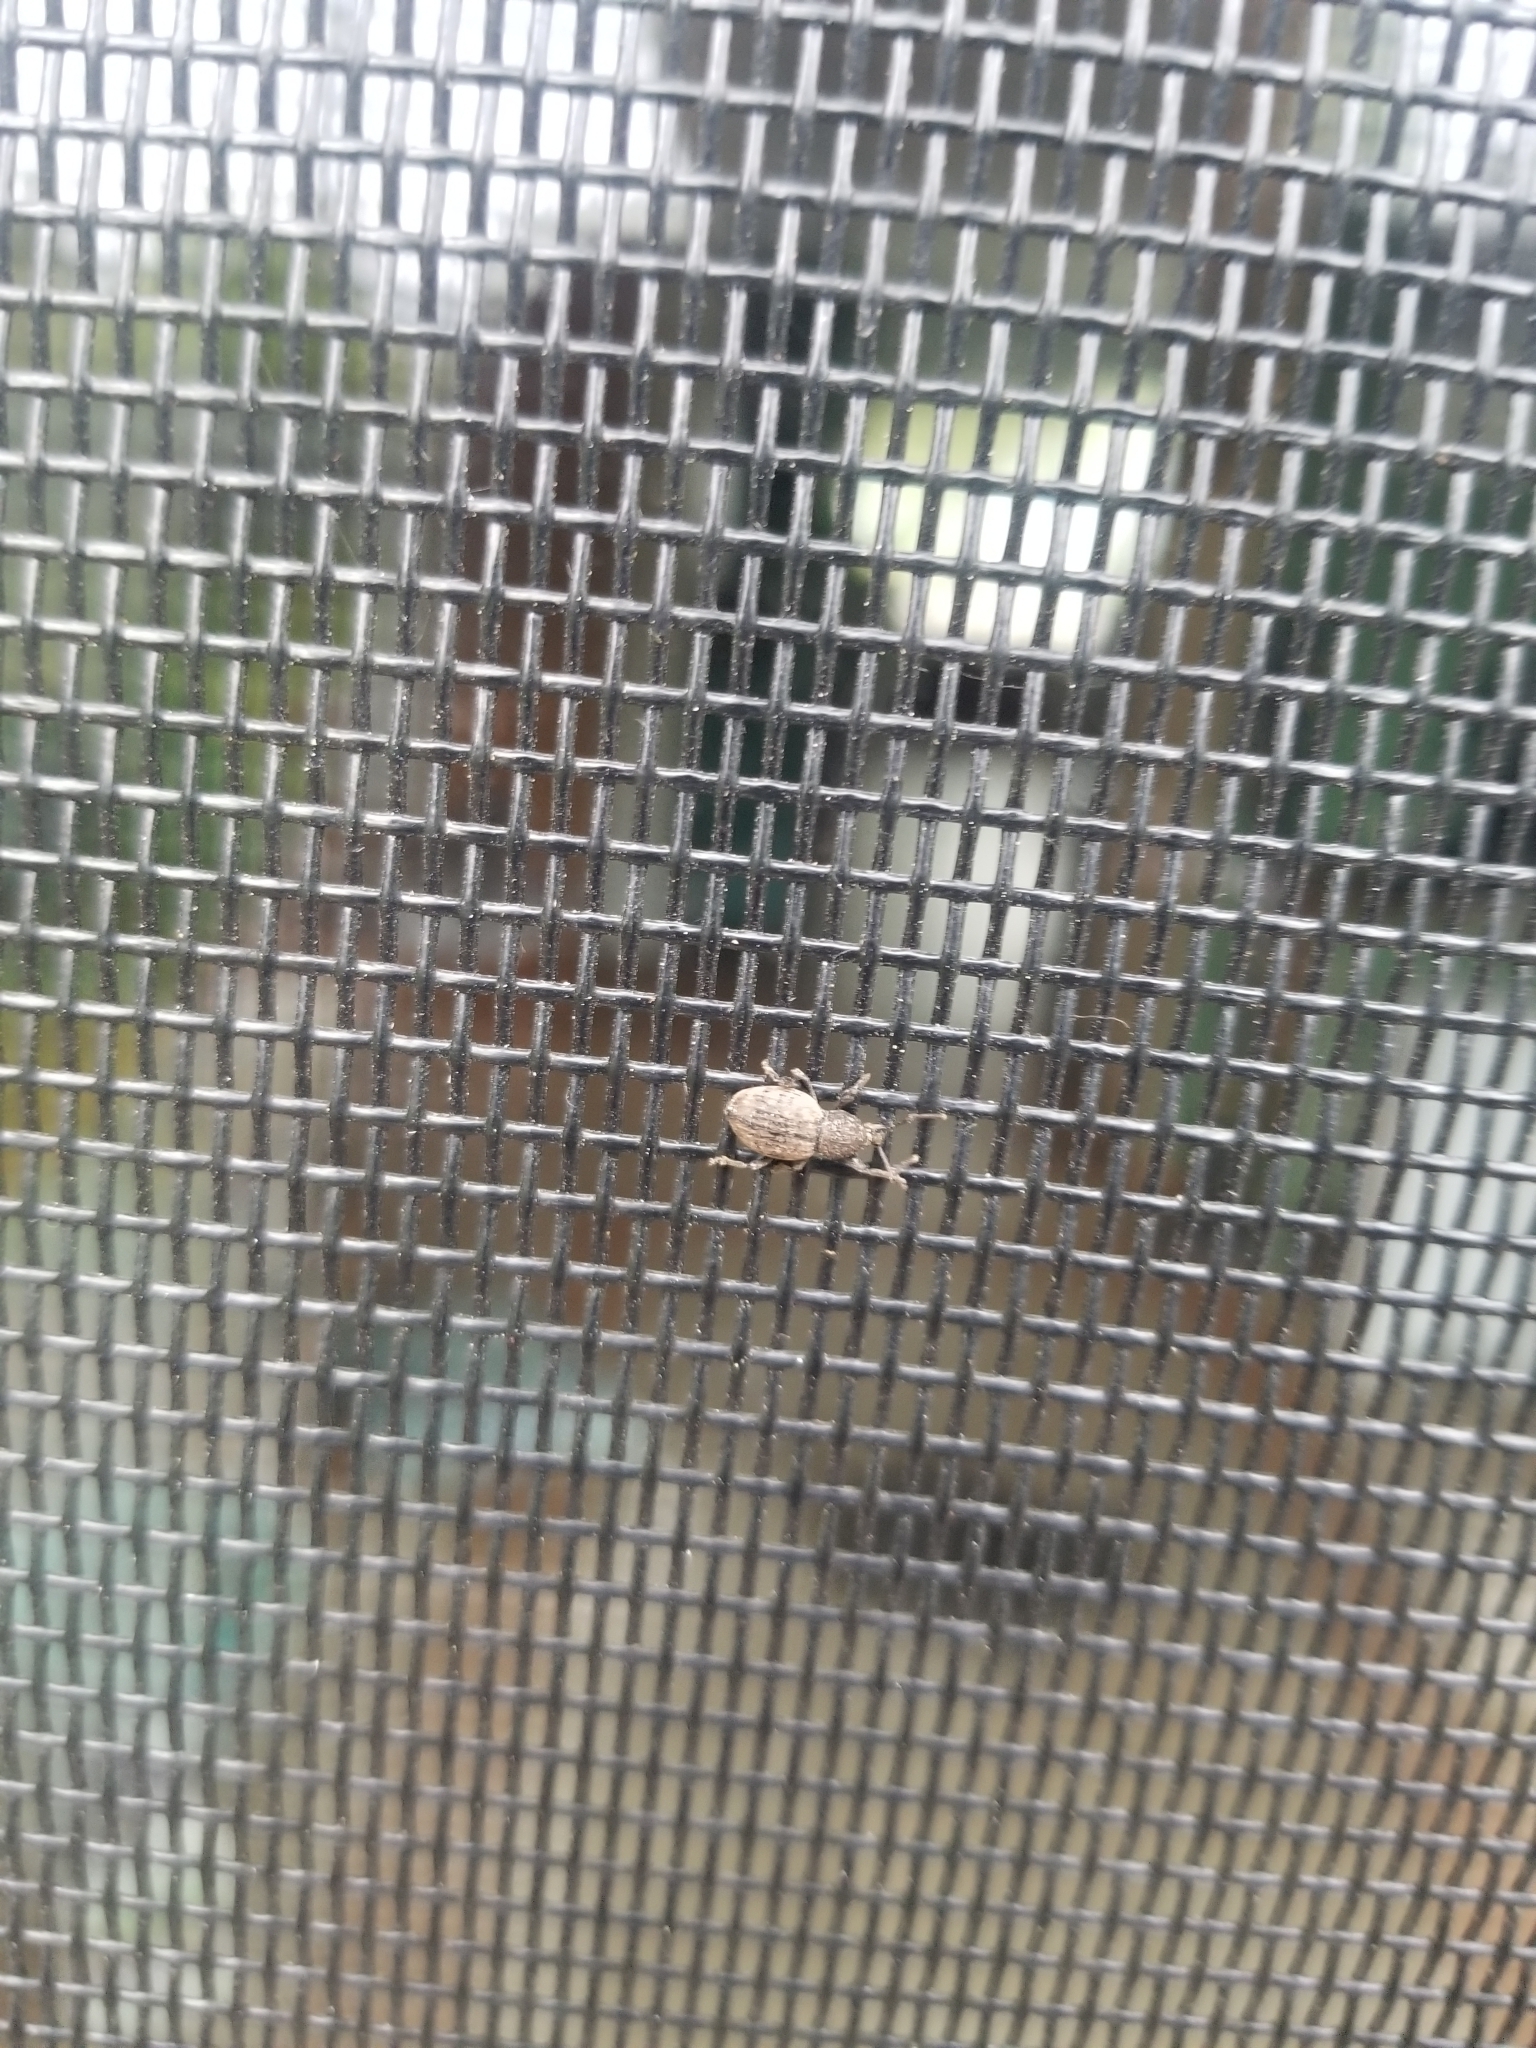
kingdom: Animalia
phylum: Arthropoda
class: Insecta
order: Coleoptera
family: Curculionidae
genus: Otiorhynchus
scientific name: Otiorhynchus raucus
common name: Weevil
